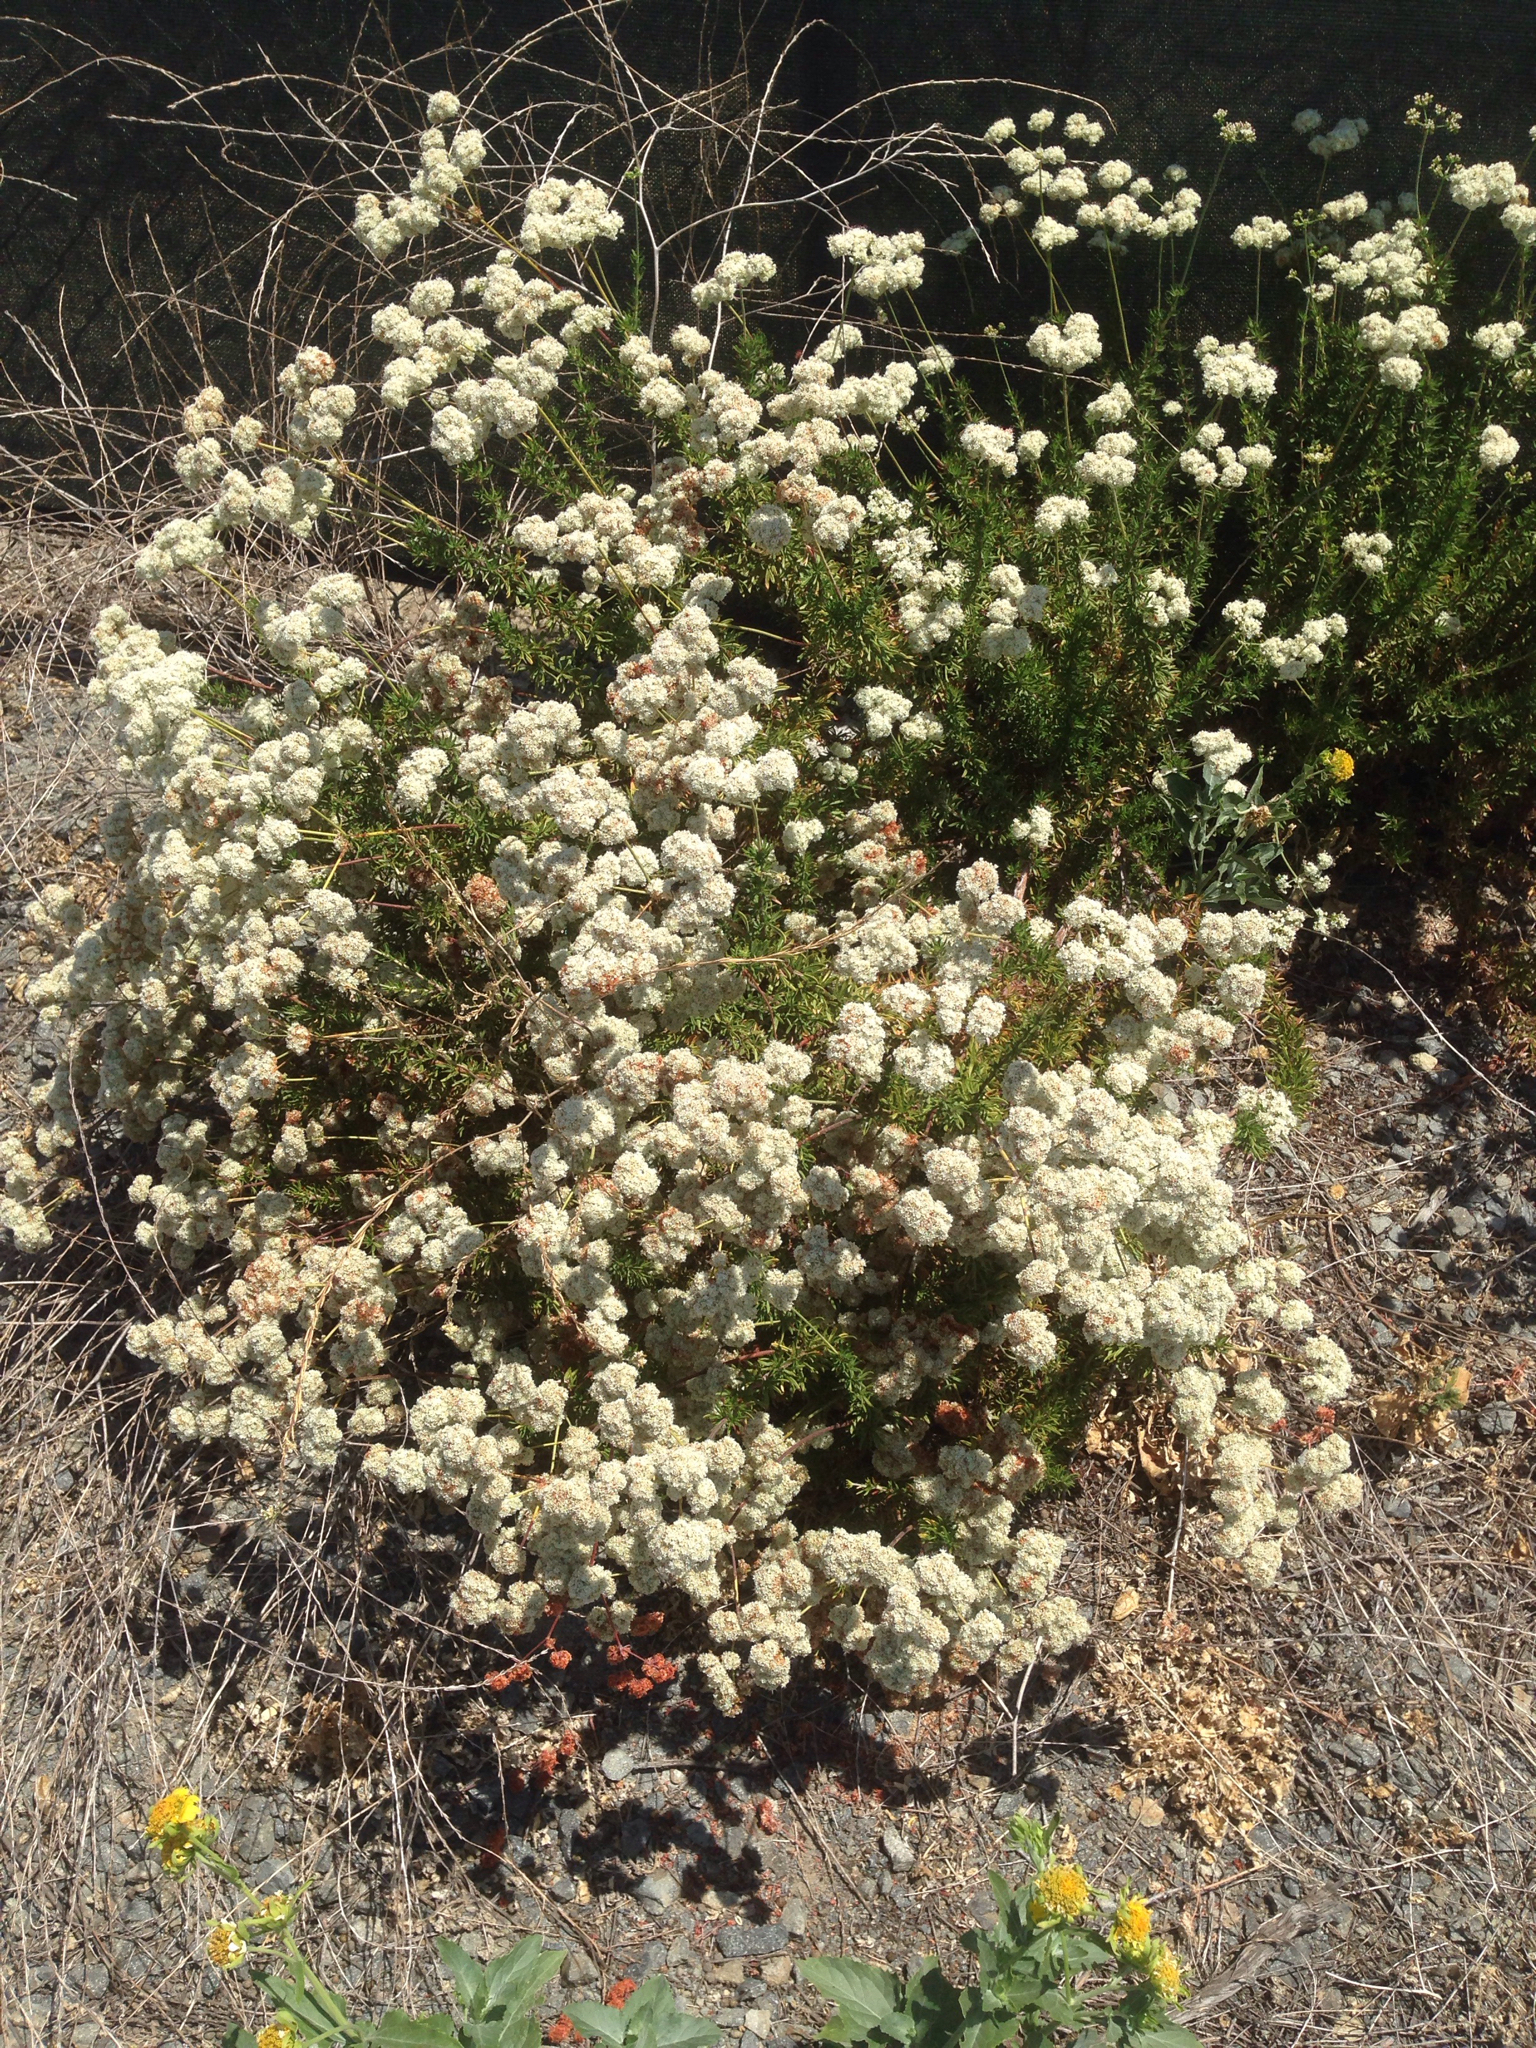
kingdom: Plantae
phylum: Tracheophyta
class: Magnoliopsida
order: Caryophyllales
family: Polygonaceae
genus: Eriogonum
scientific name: Eriogonum fasciculatum
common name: California wild buckwheat
